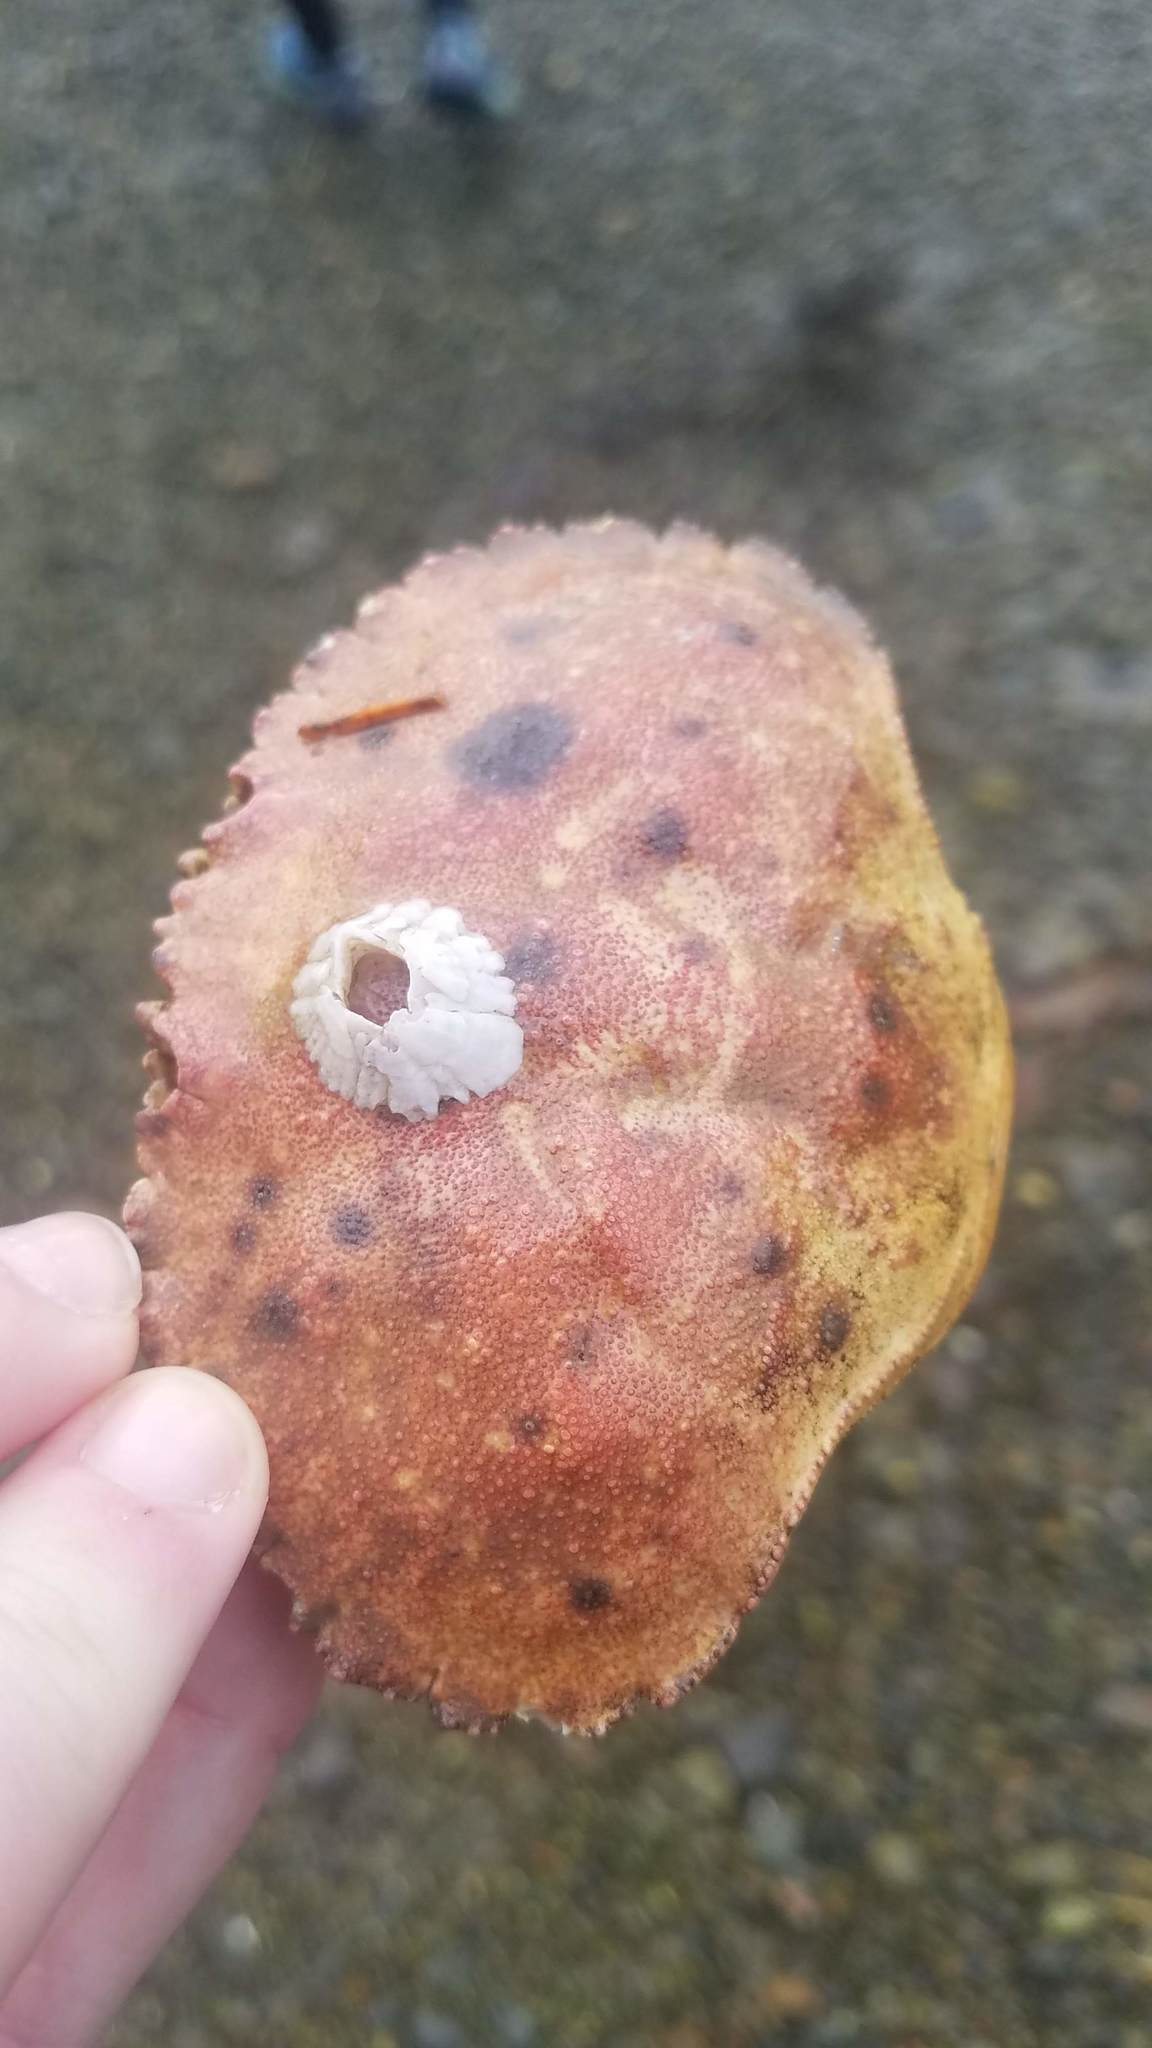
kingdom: Animalia
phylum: Arthropoda
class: Malacostraca
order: Decapoda
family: Cancridae
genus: Cancer
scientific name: Cancer borealis
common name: Jonah crab
